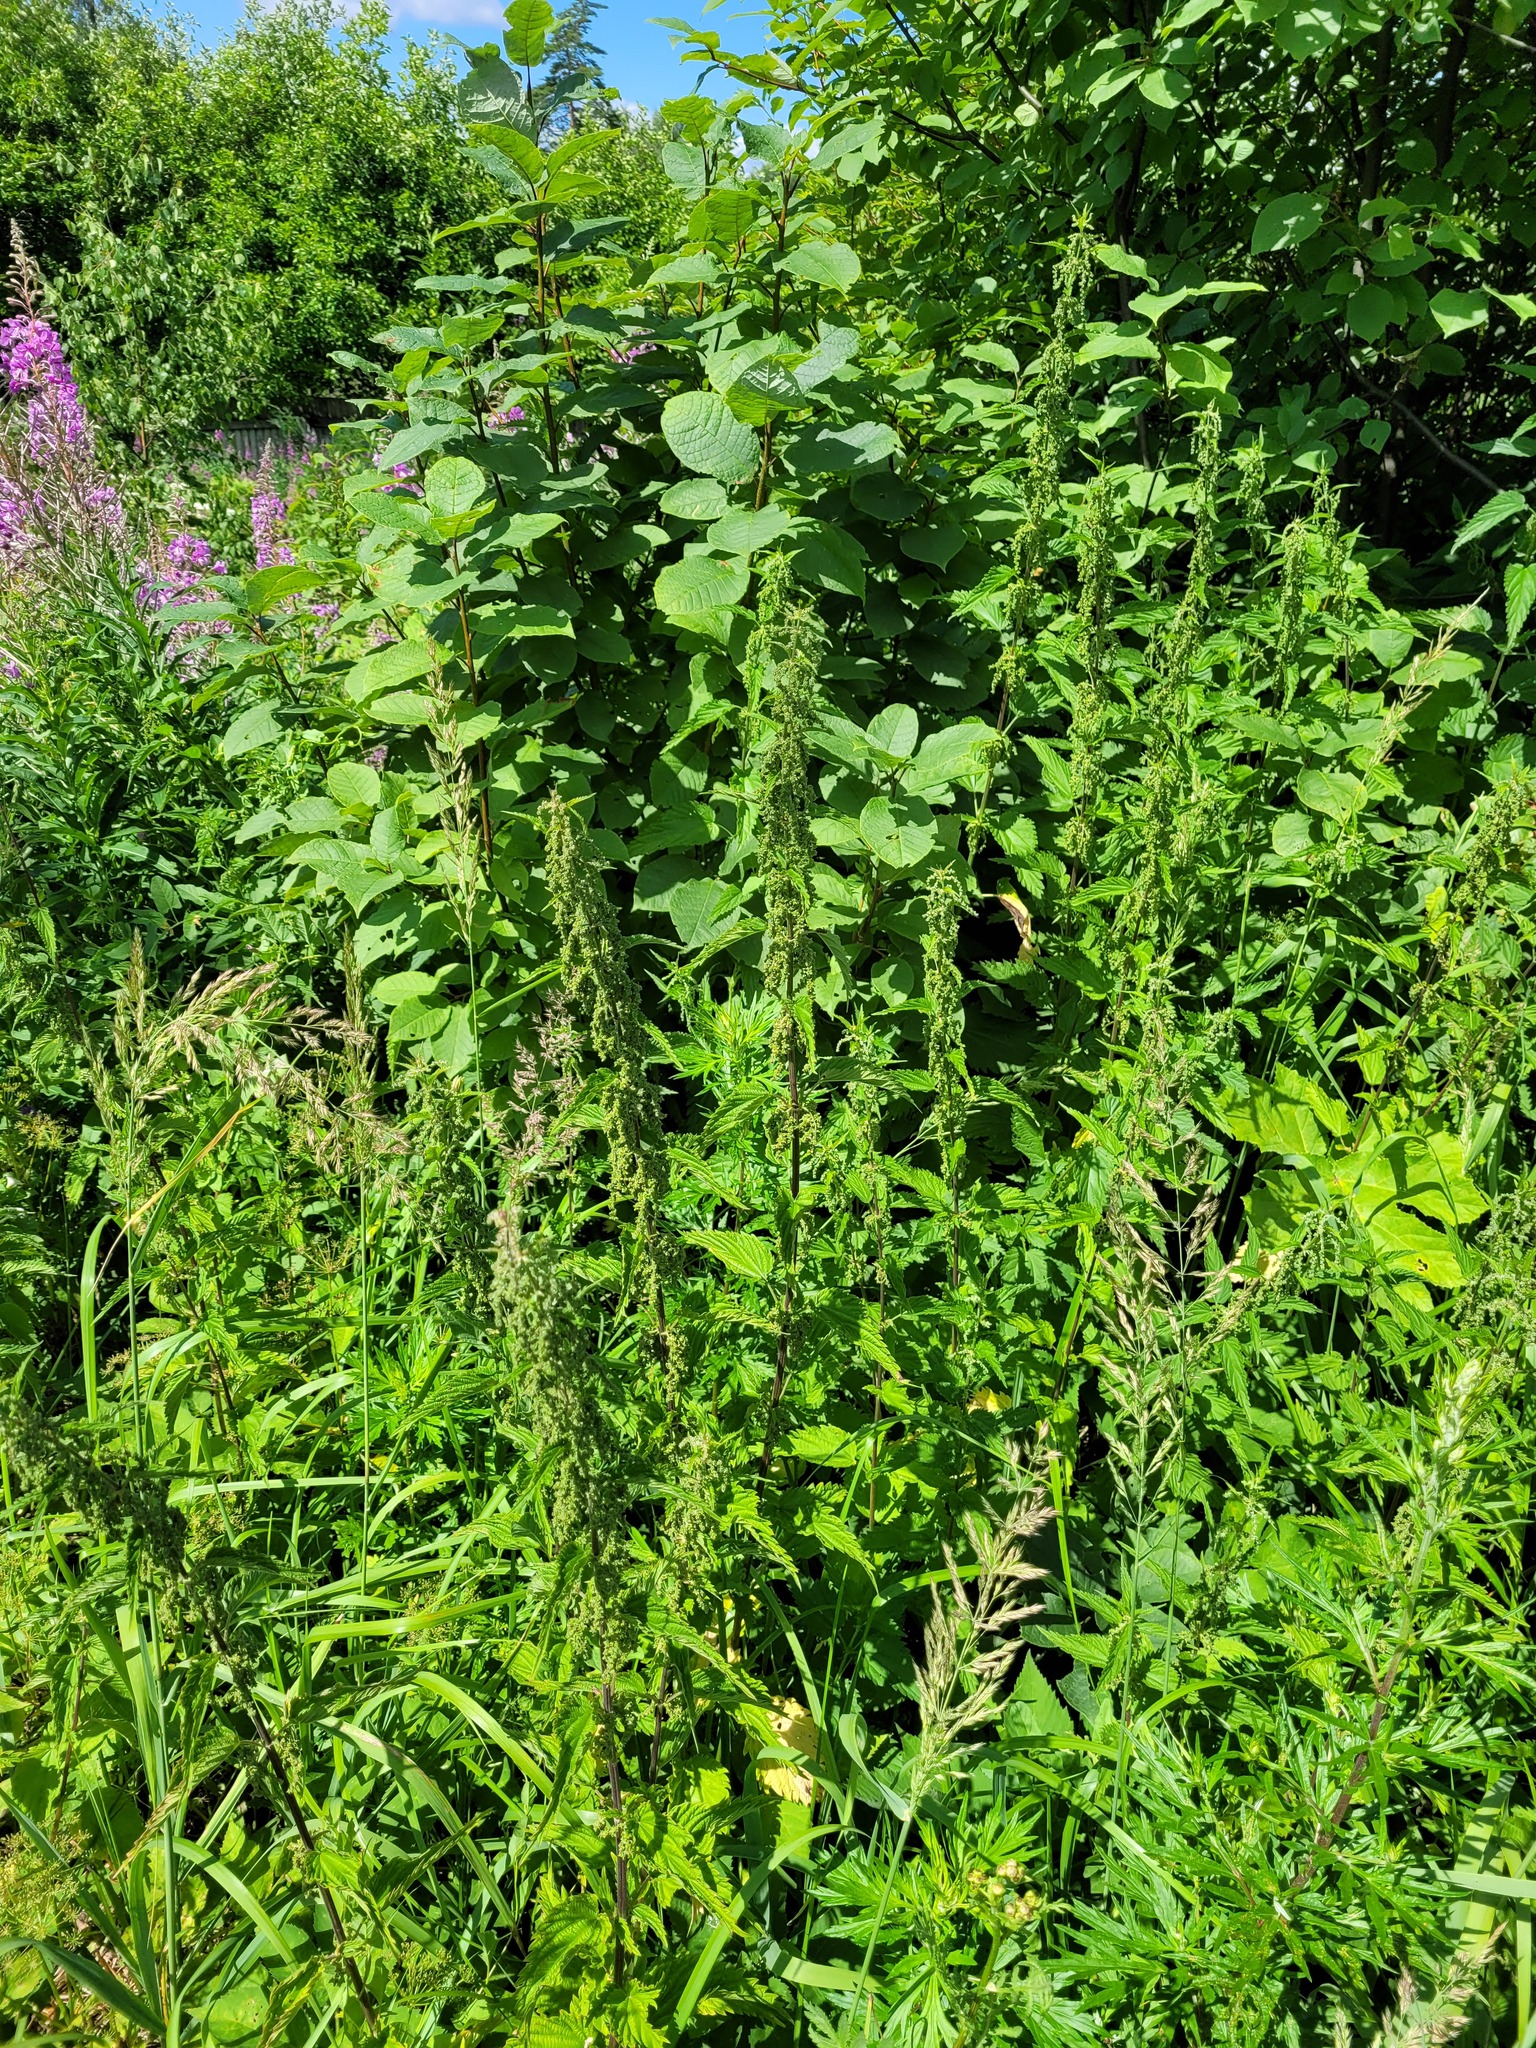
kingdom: Plantae
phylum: Tracheophyta
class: Magnoliopsida
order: Rosales
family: Urticaceae
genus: Urtica
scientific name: Urtica dioica
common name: Common nettle
